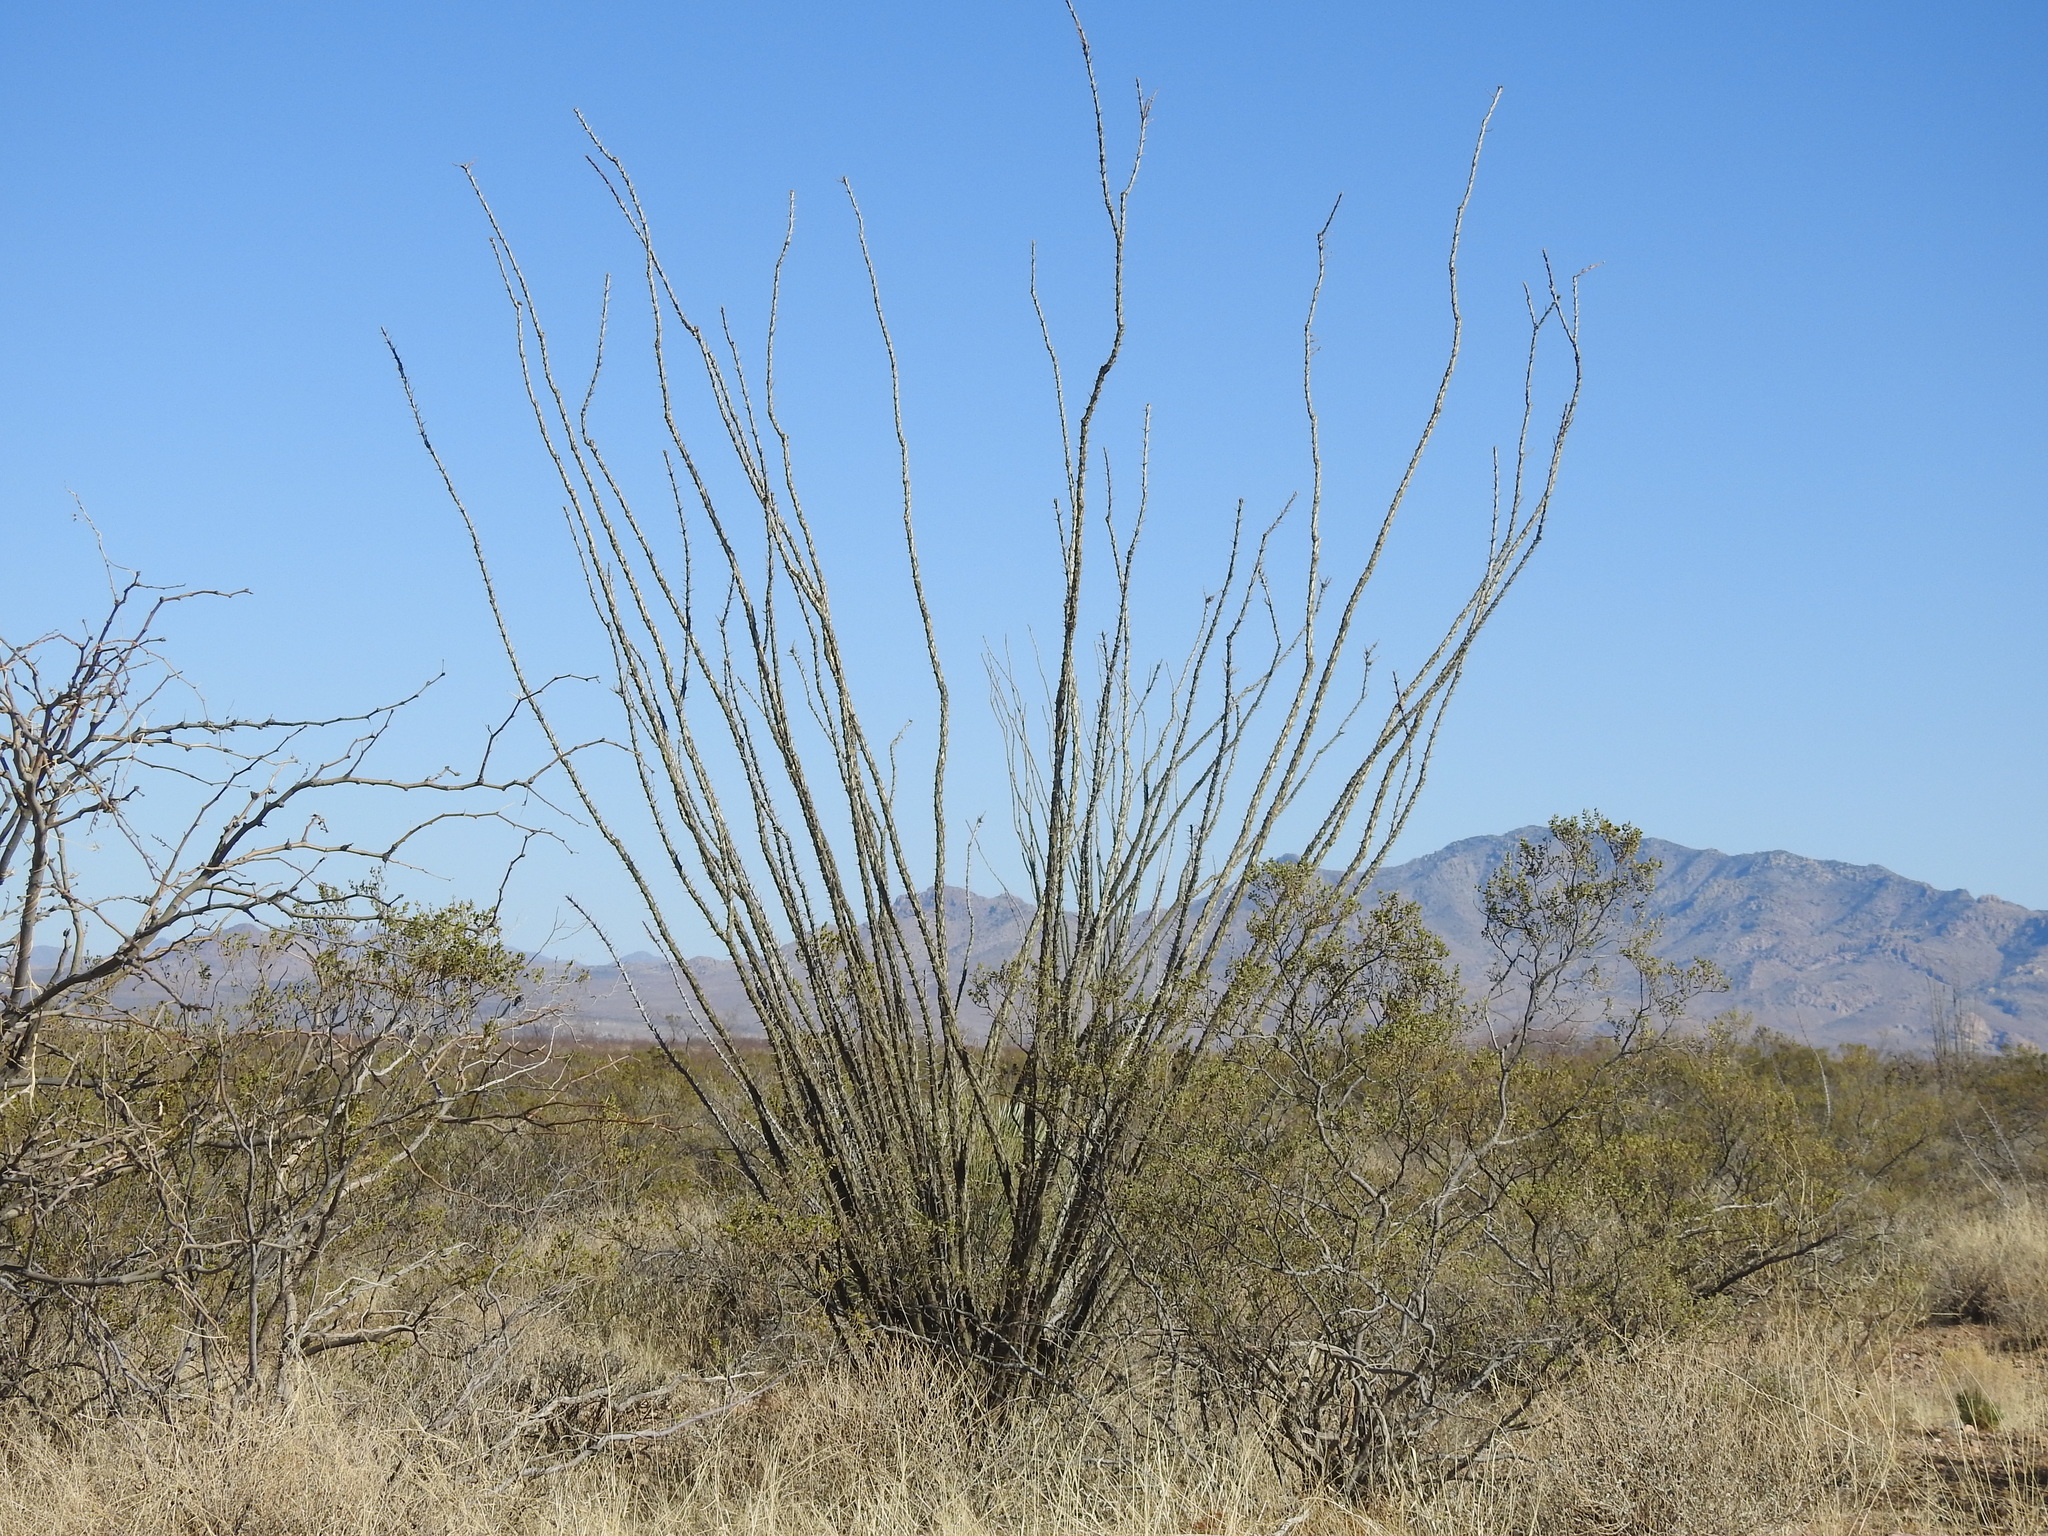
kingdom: Plantae
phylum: Tracheophyta
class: Magnoliopsida
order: Ericales
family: Fouquieriaceae
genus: Fouquieria
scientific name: Fouquieria splendens
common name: Vine-cactus
